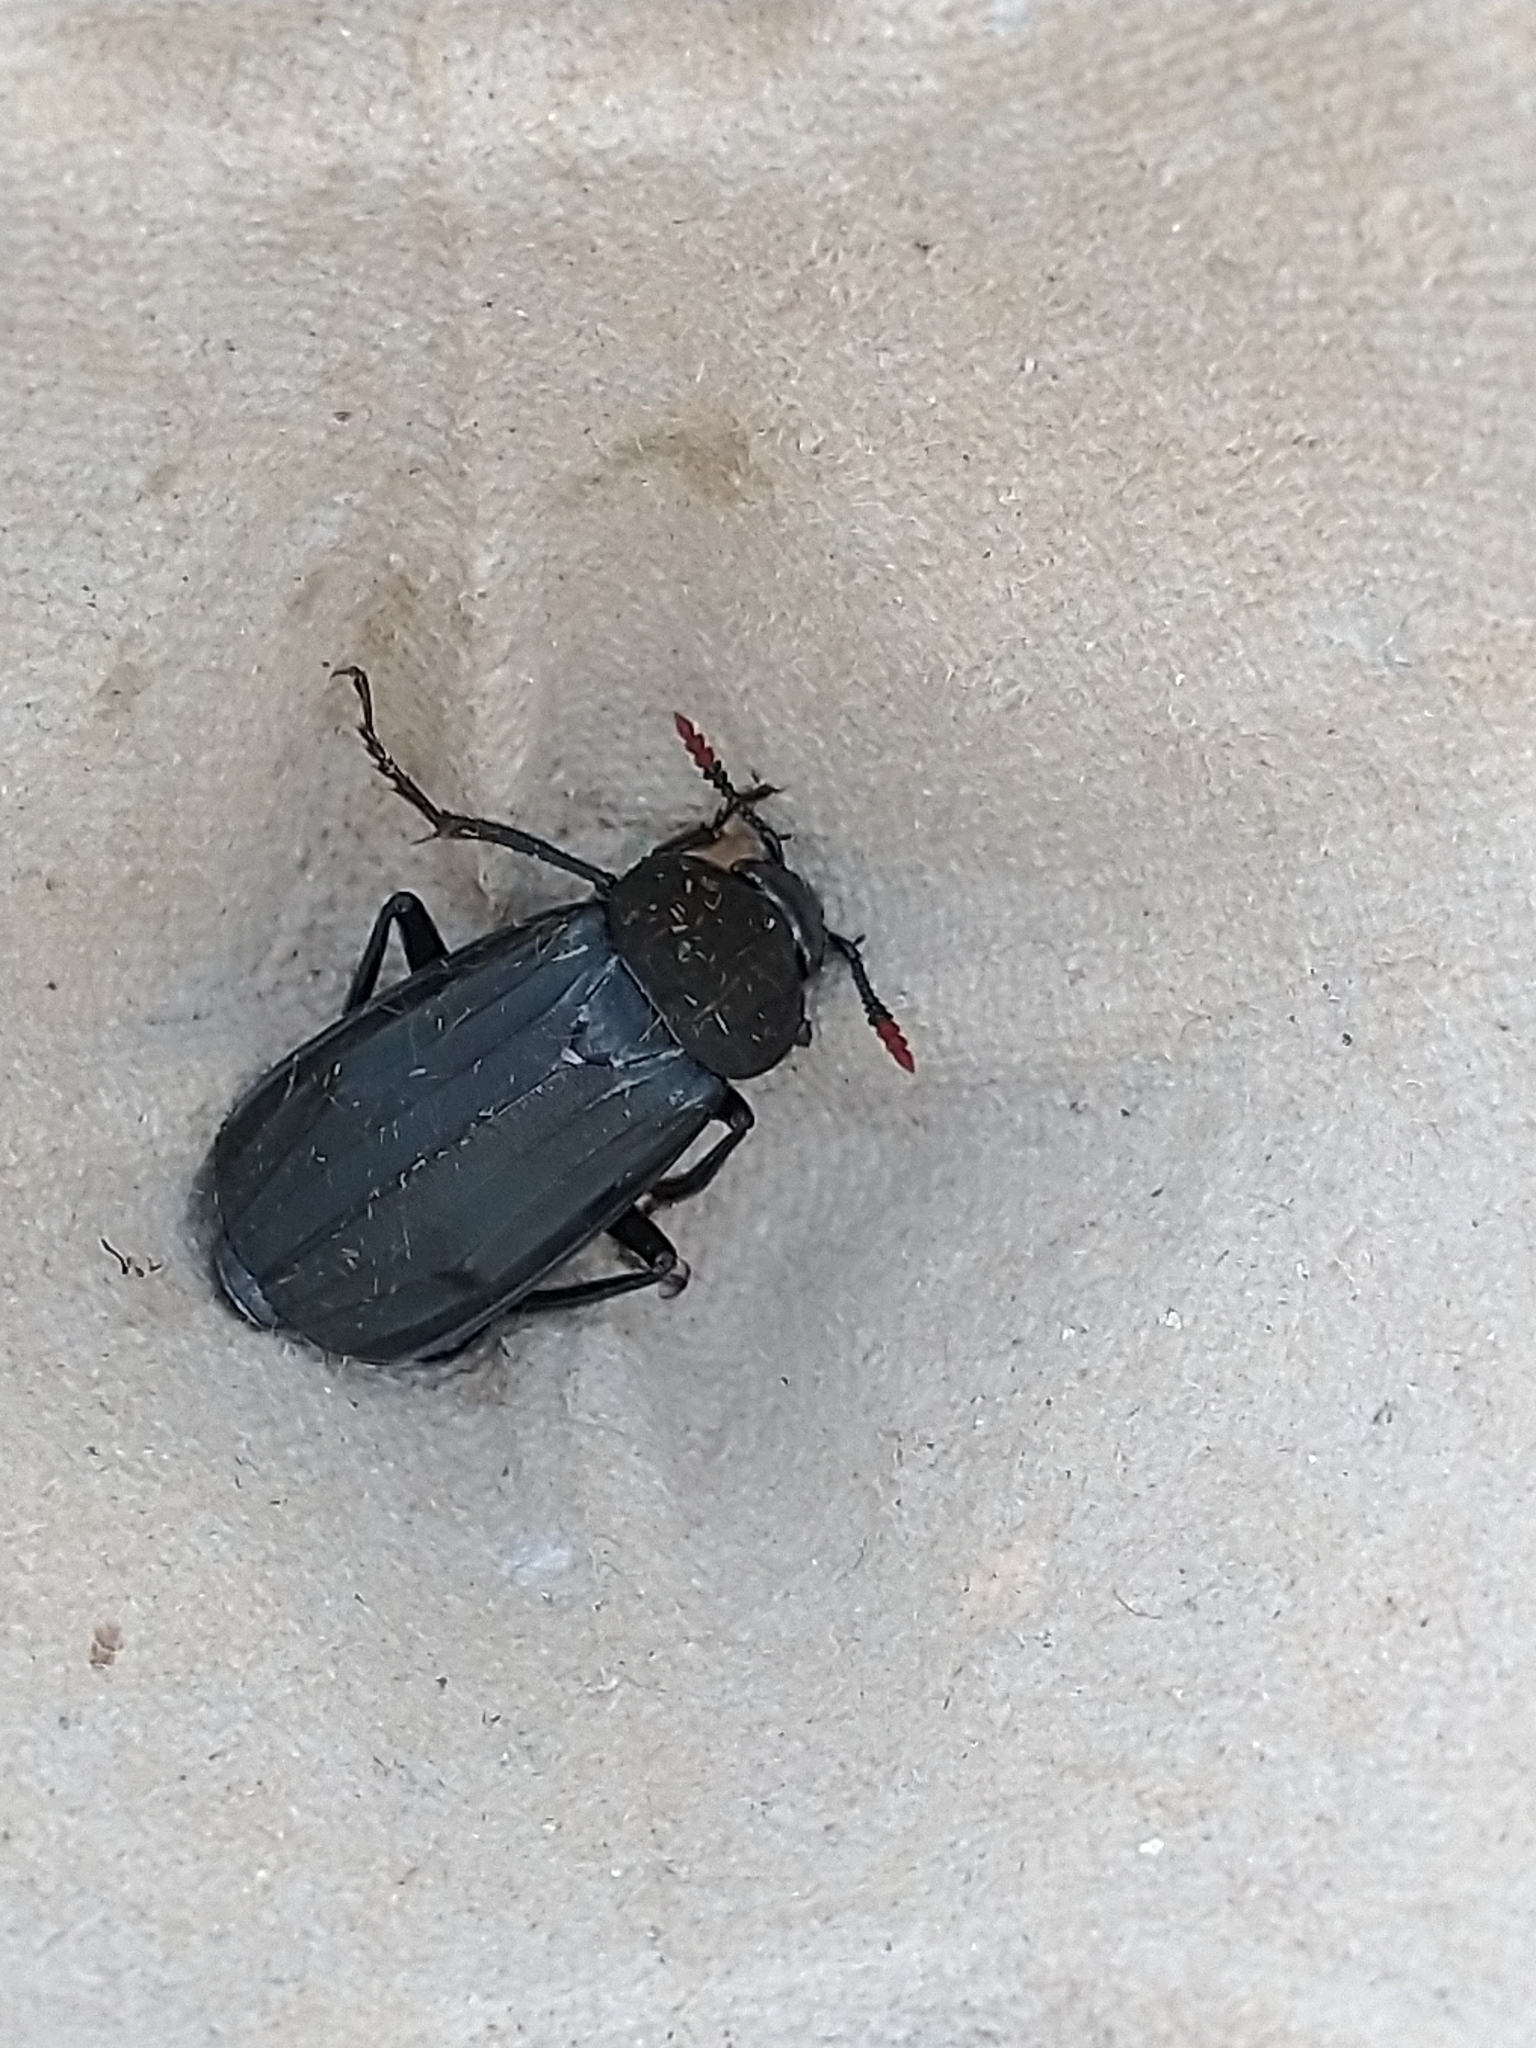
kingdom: Animalia
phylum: Arthropoda
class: Insecta
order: Coleoptera
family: Staphylinidae
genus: Necrodes
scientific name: Necrodes littoralis
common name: Shore sexton beetle
